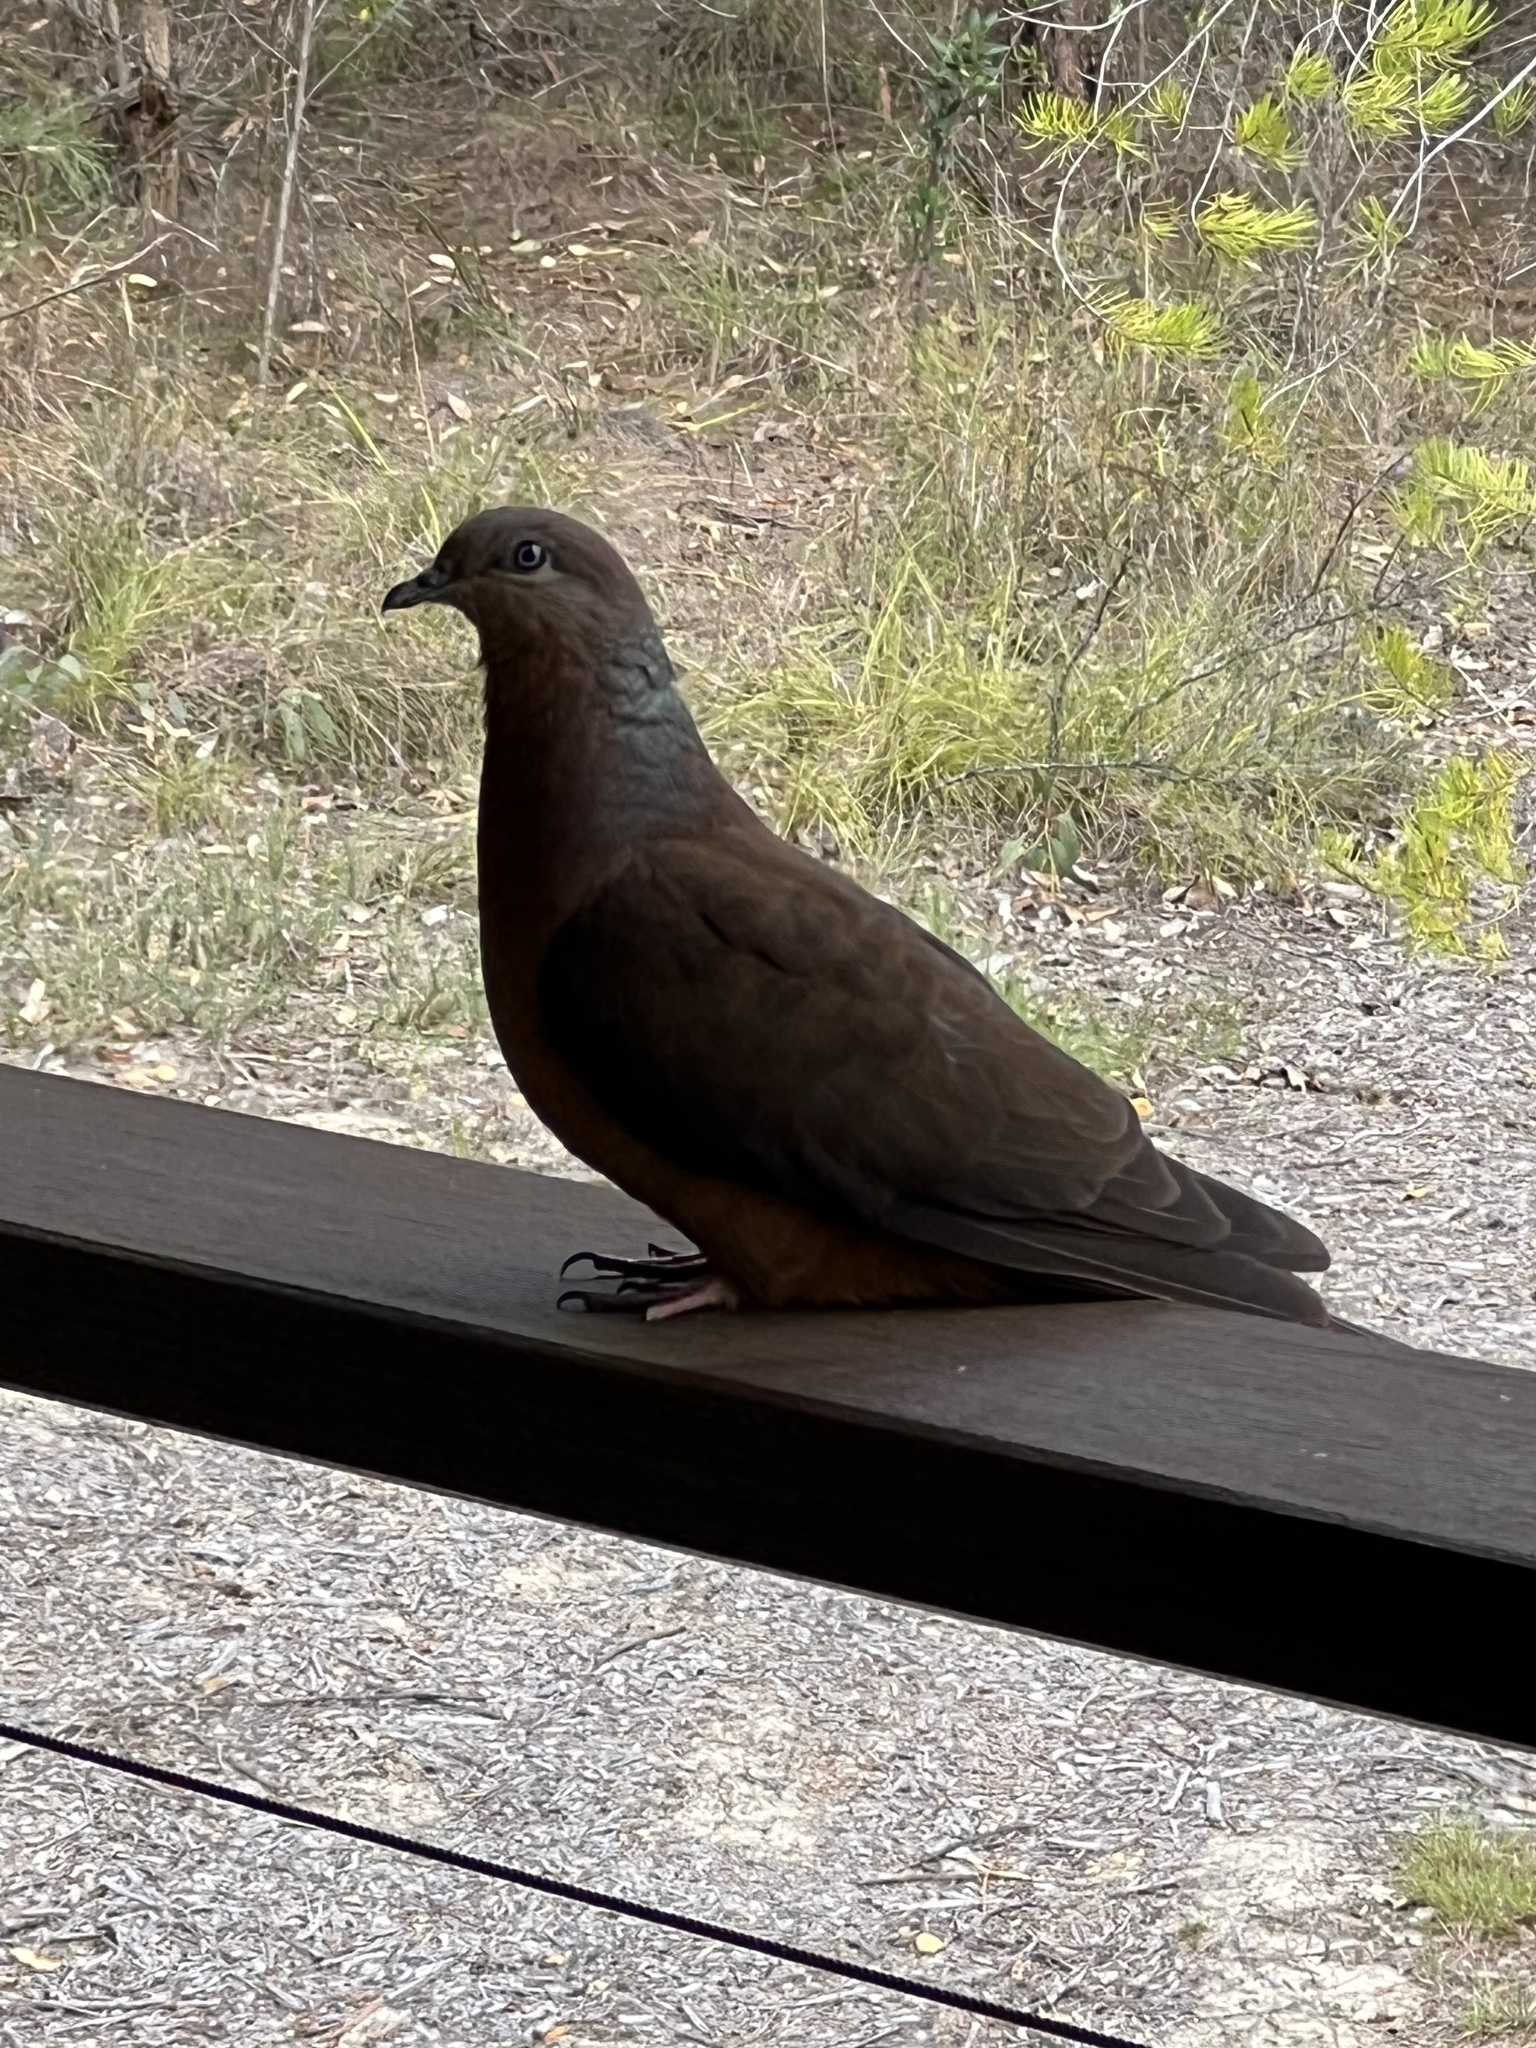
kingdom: Animalia
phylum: Chordata
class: Aves
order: Columbiformes
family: Columbidae
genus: Macropygia
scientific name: Macropygia phasianella
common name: Brown cuckoo-dove
